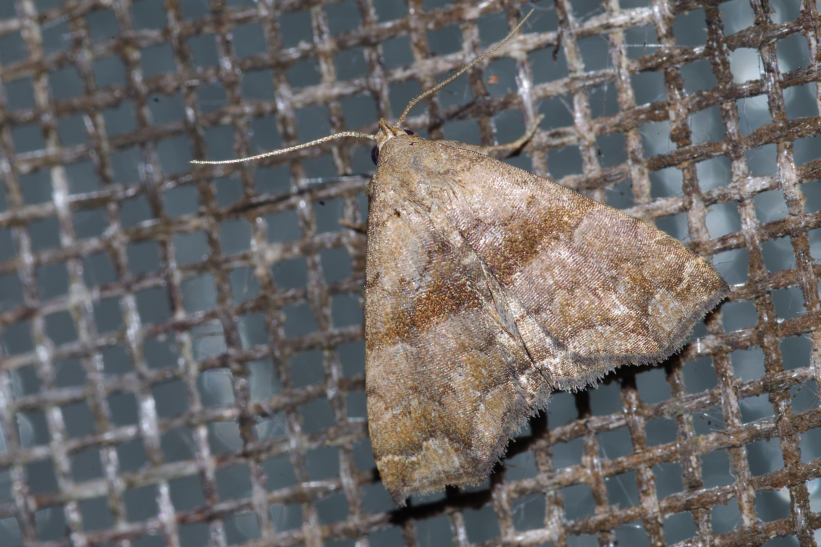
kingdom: Animalia
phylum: Arthropoda
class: Insecta
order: Lepidoptera
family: Erebidae
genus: Polypogon
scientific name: Polypogon Hipoepa fractalis
